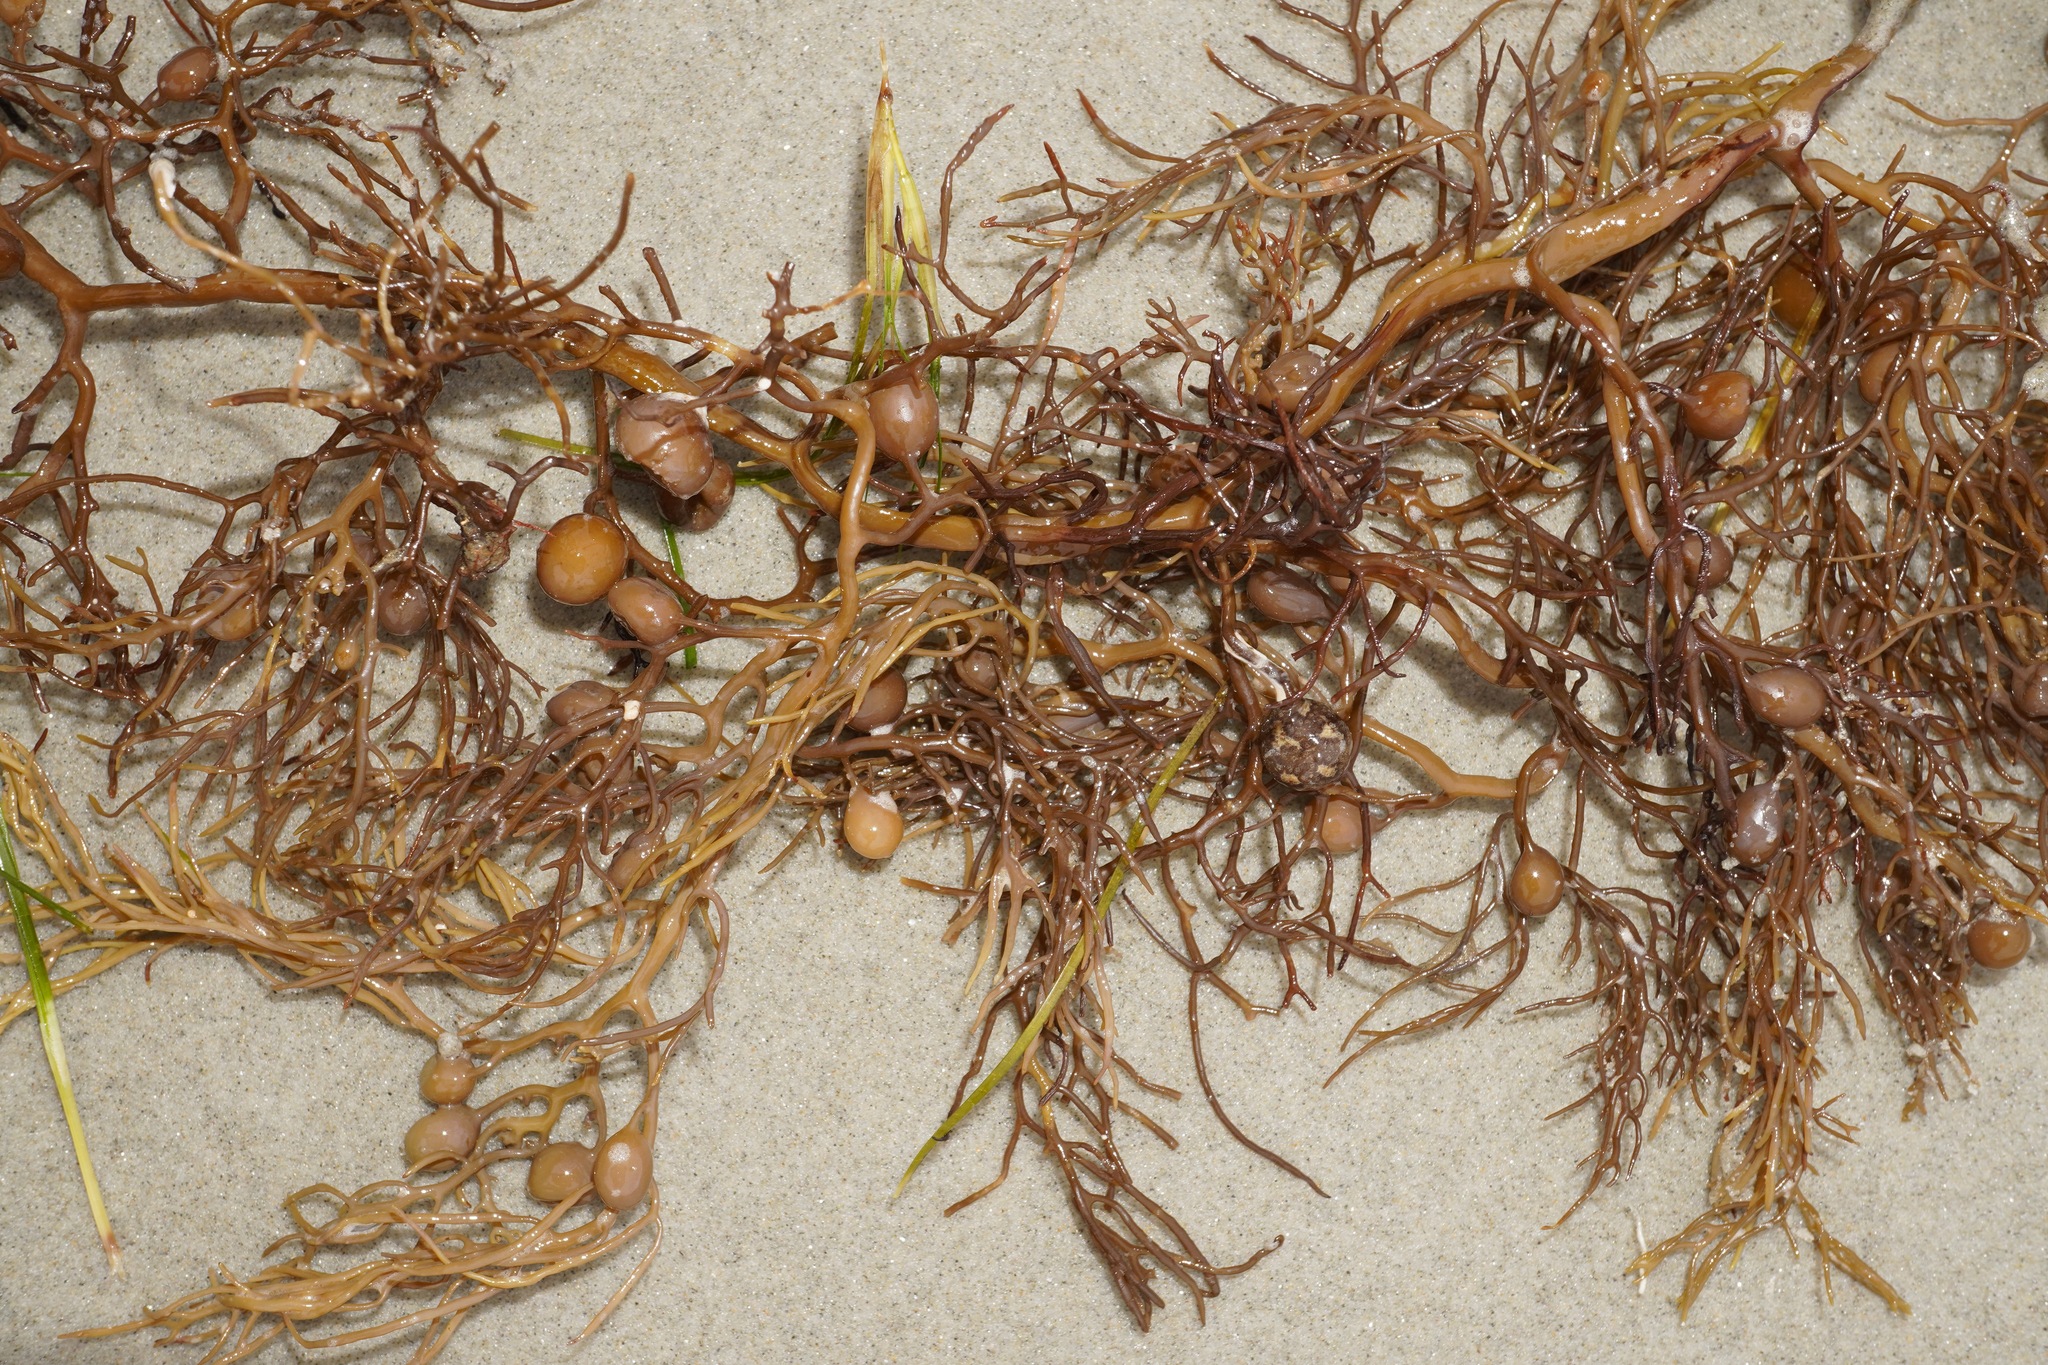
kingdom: Chromista
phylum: Ochrophyta
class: Phaeophyceae
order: Fucales
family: Sargassaceae
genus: Cystophora
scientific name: Cystophora retroflexa
